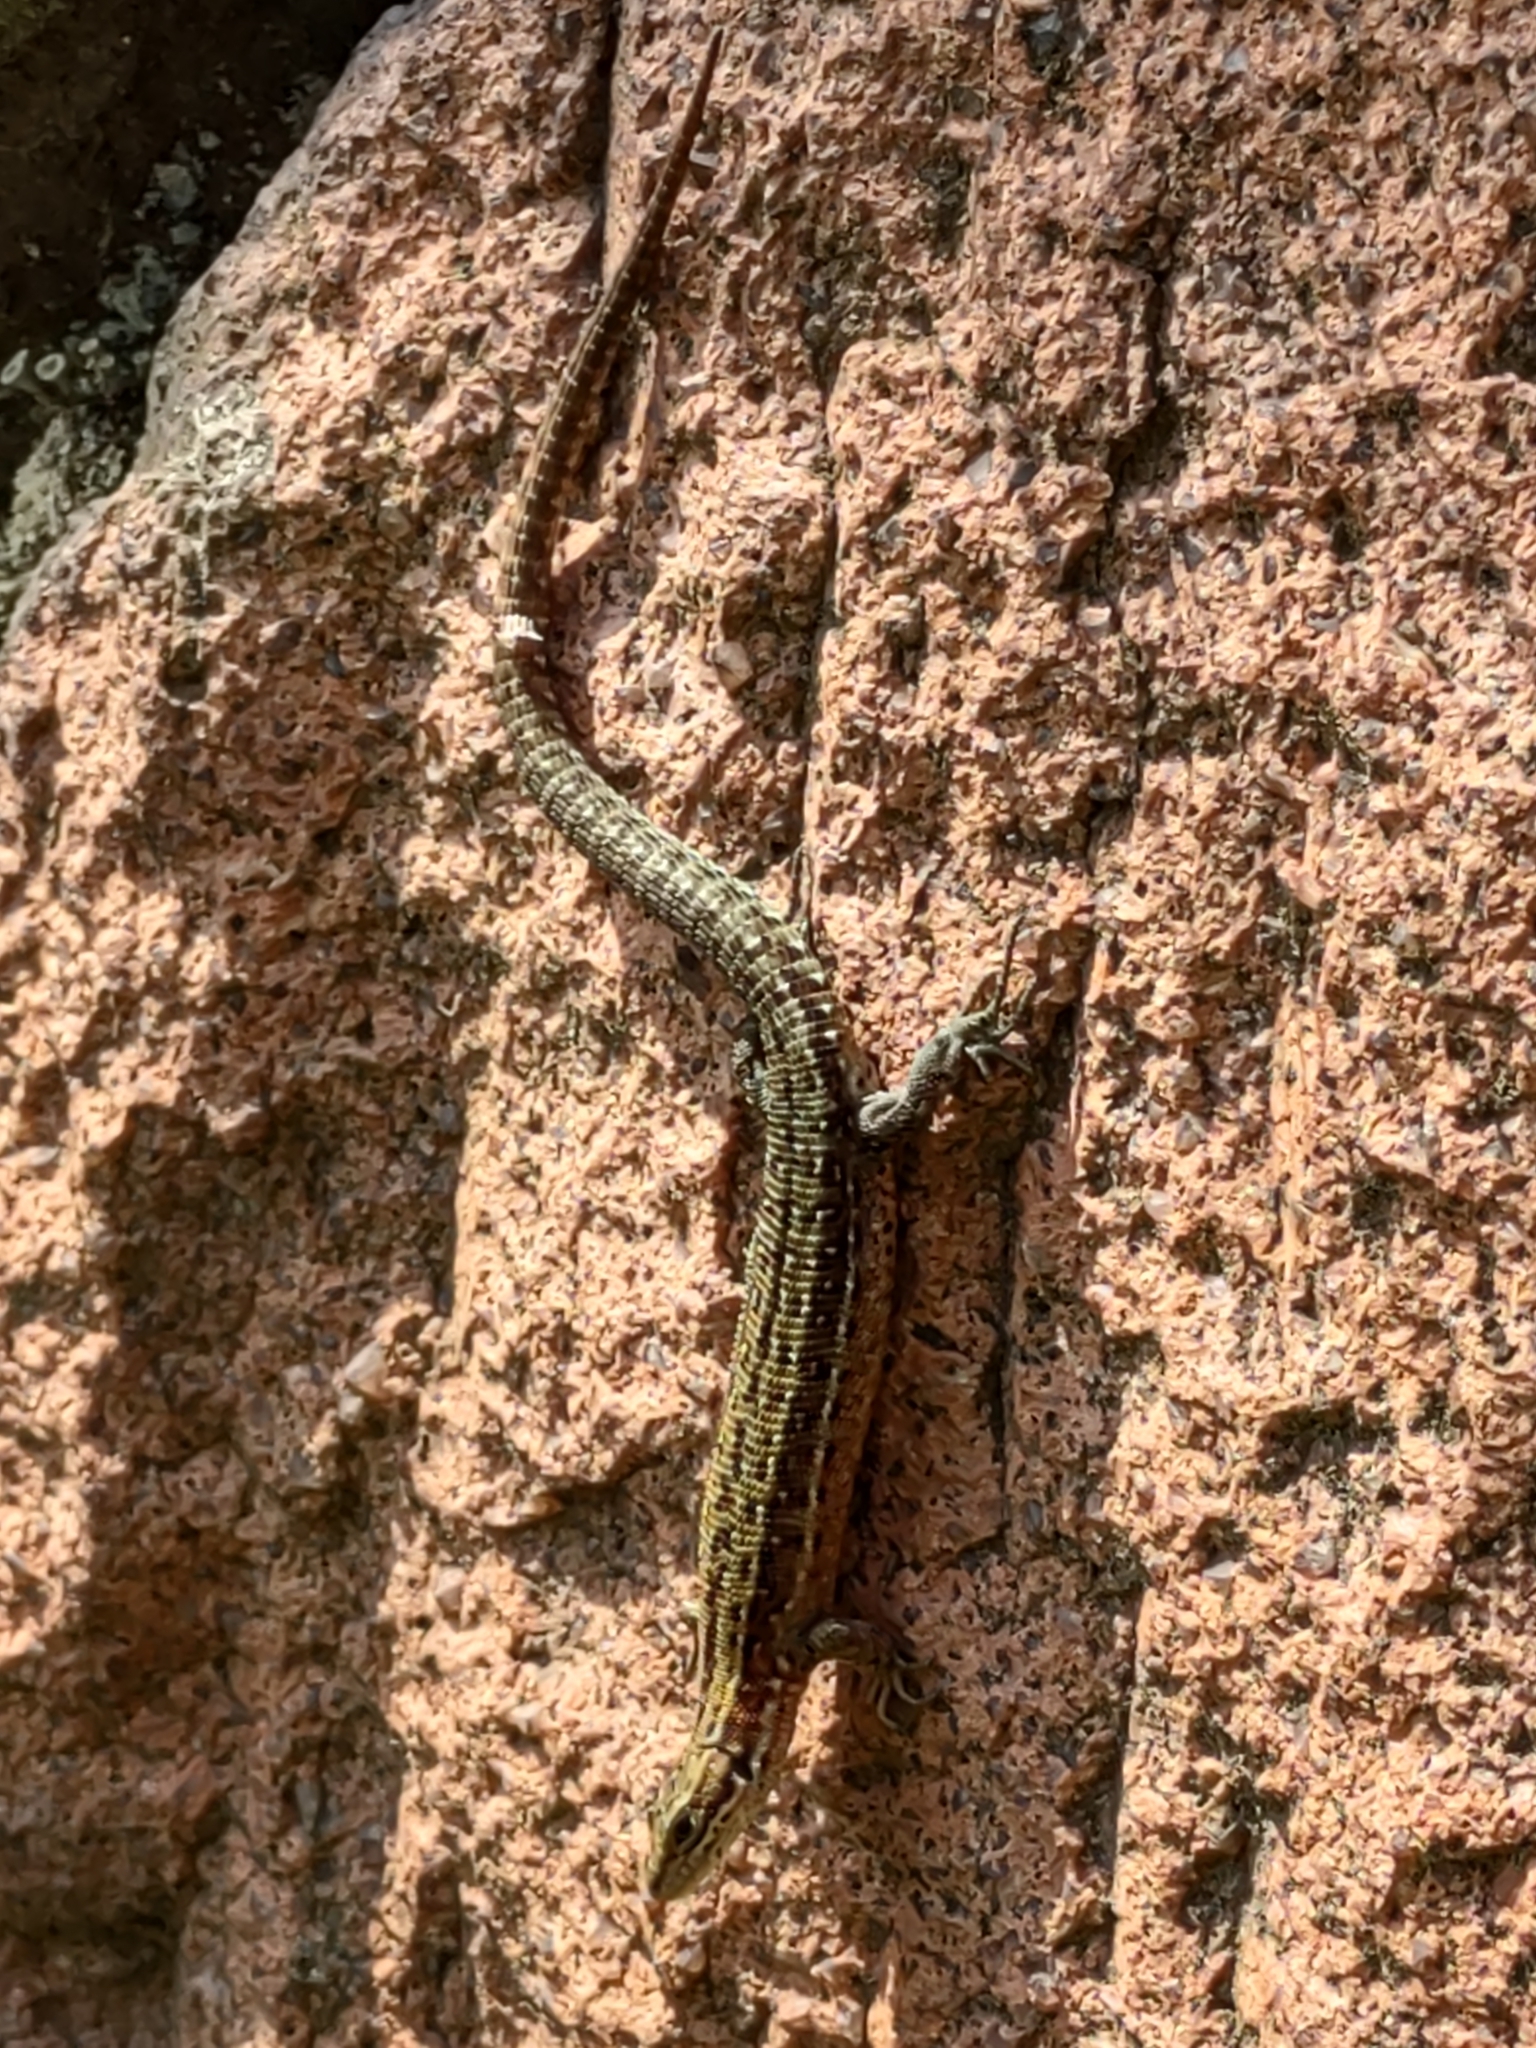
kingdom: Animalia
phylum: Chordata
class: Squamata
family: Lacertidae
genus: Zootoca
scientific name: Zootoca vivipara
